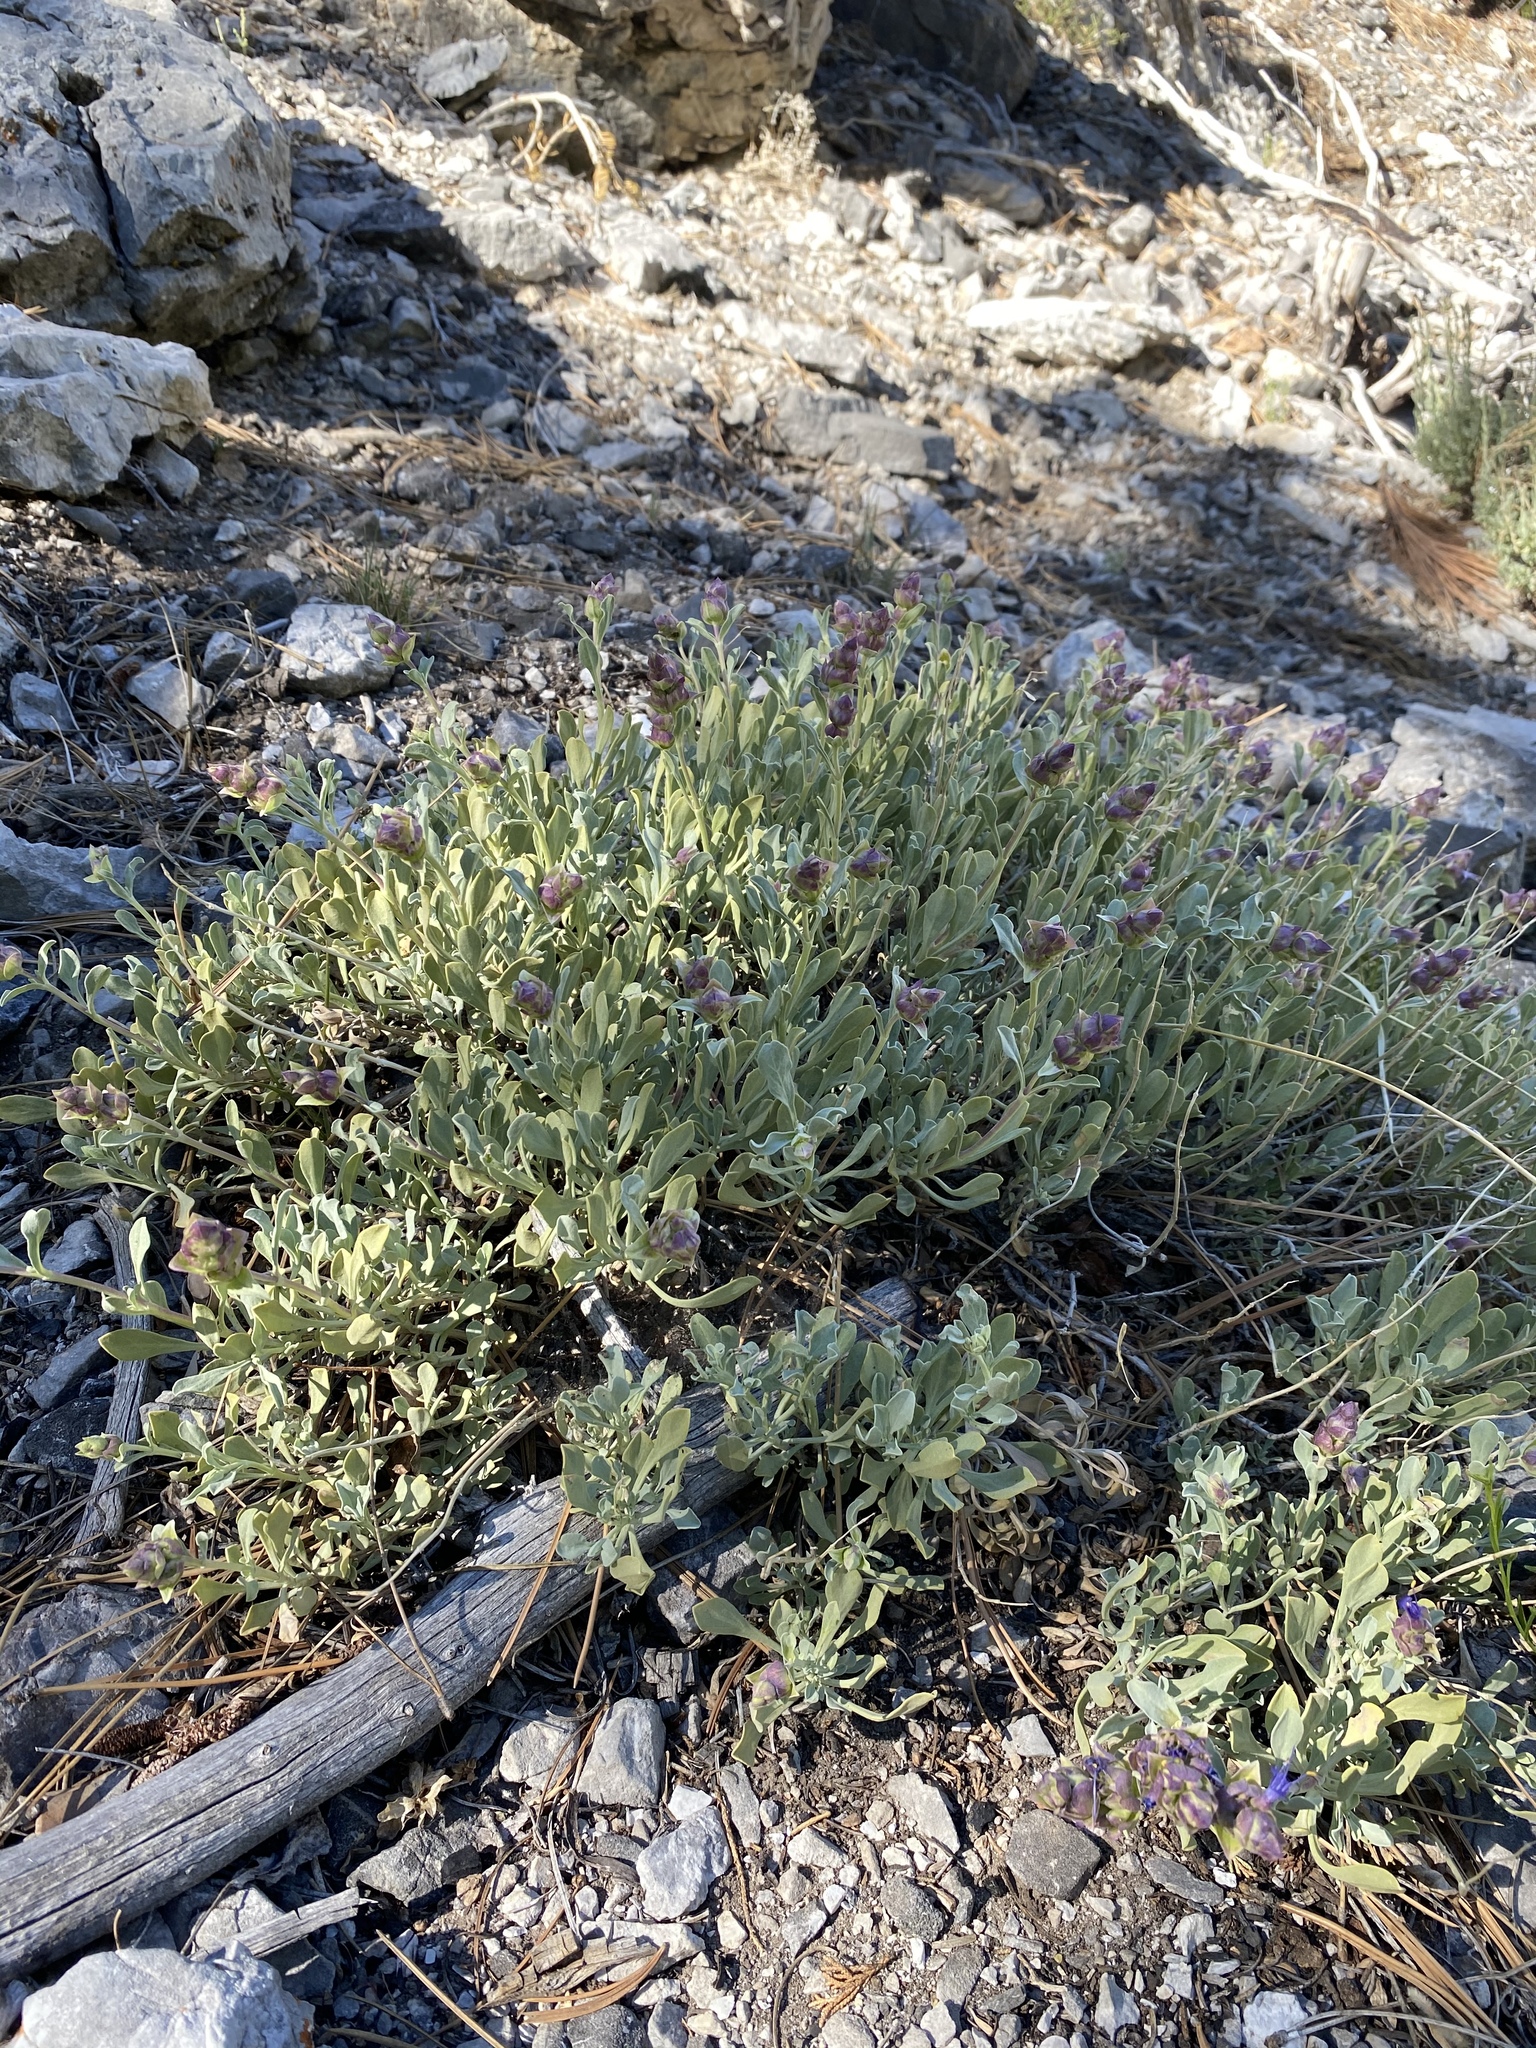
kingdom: Plantae
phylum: Tracheophyta
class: Magnoliopsida
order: Lamiales
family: Lamiaceae
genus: Salvia
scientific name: Salvia dorrii
